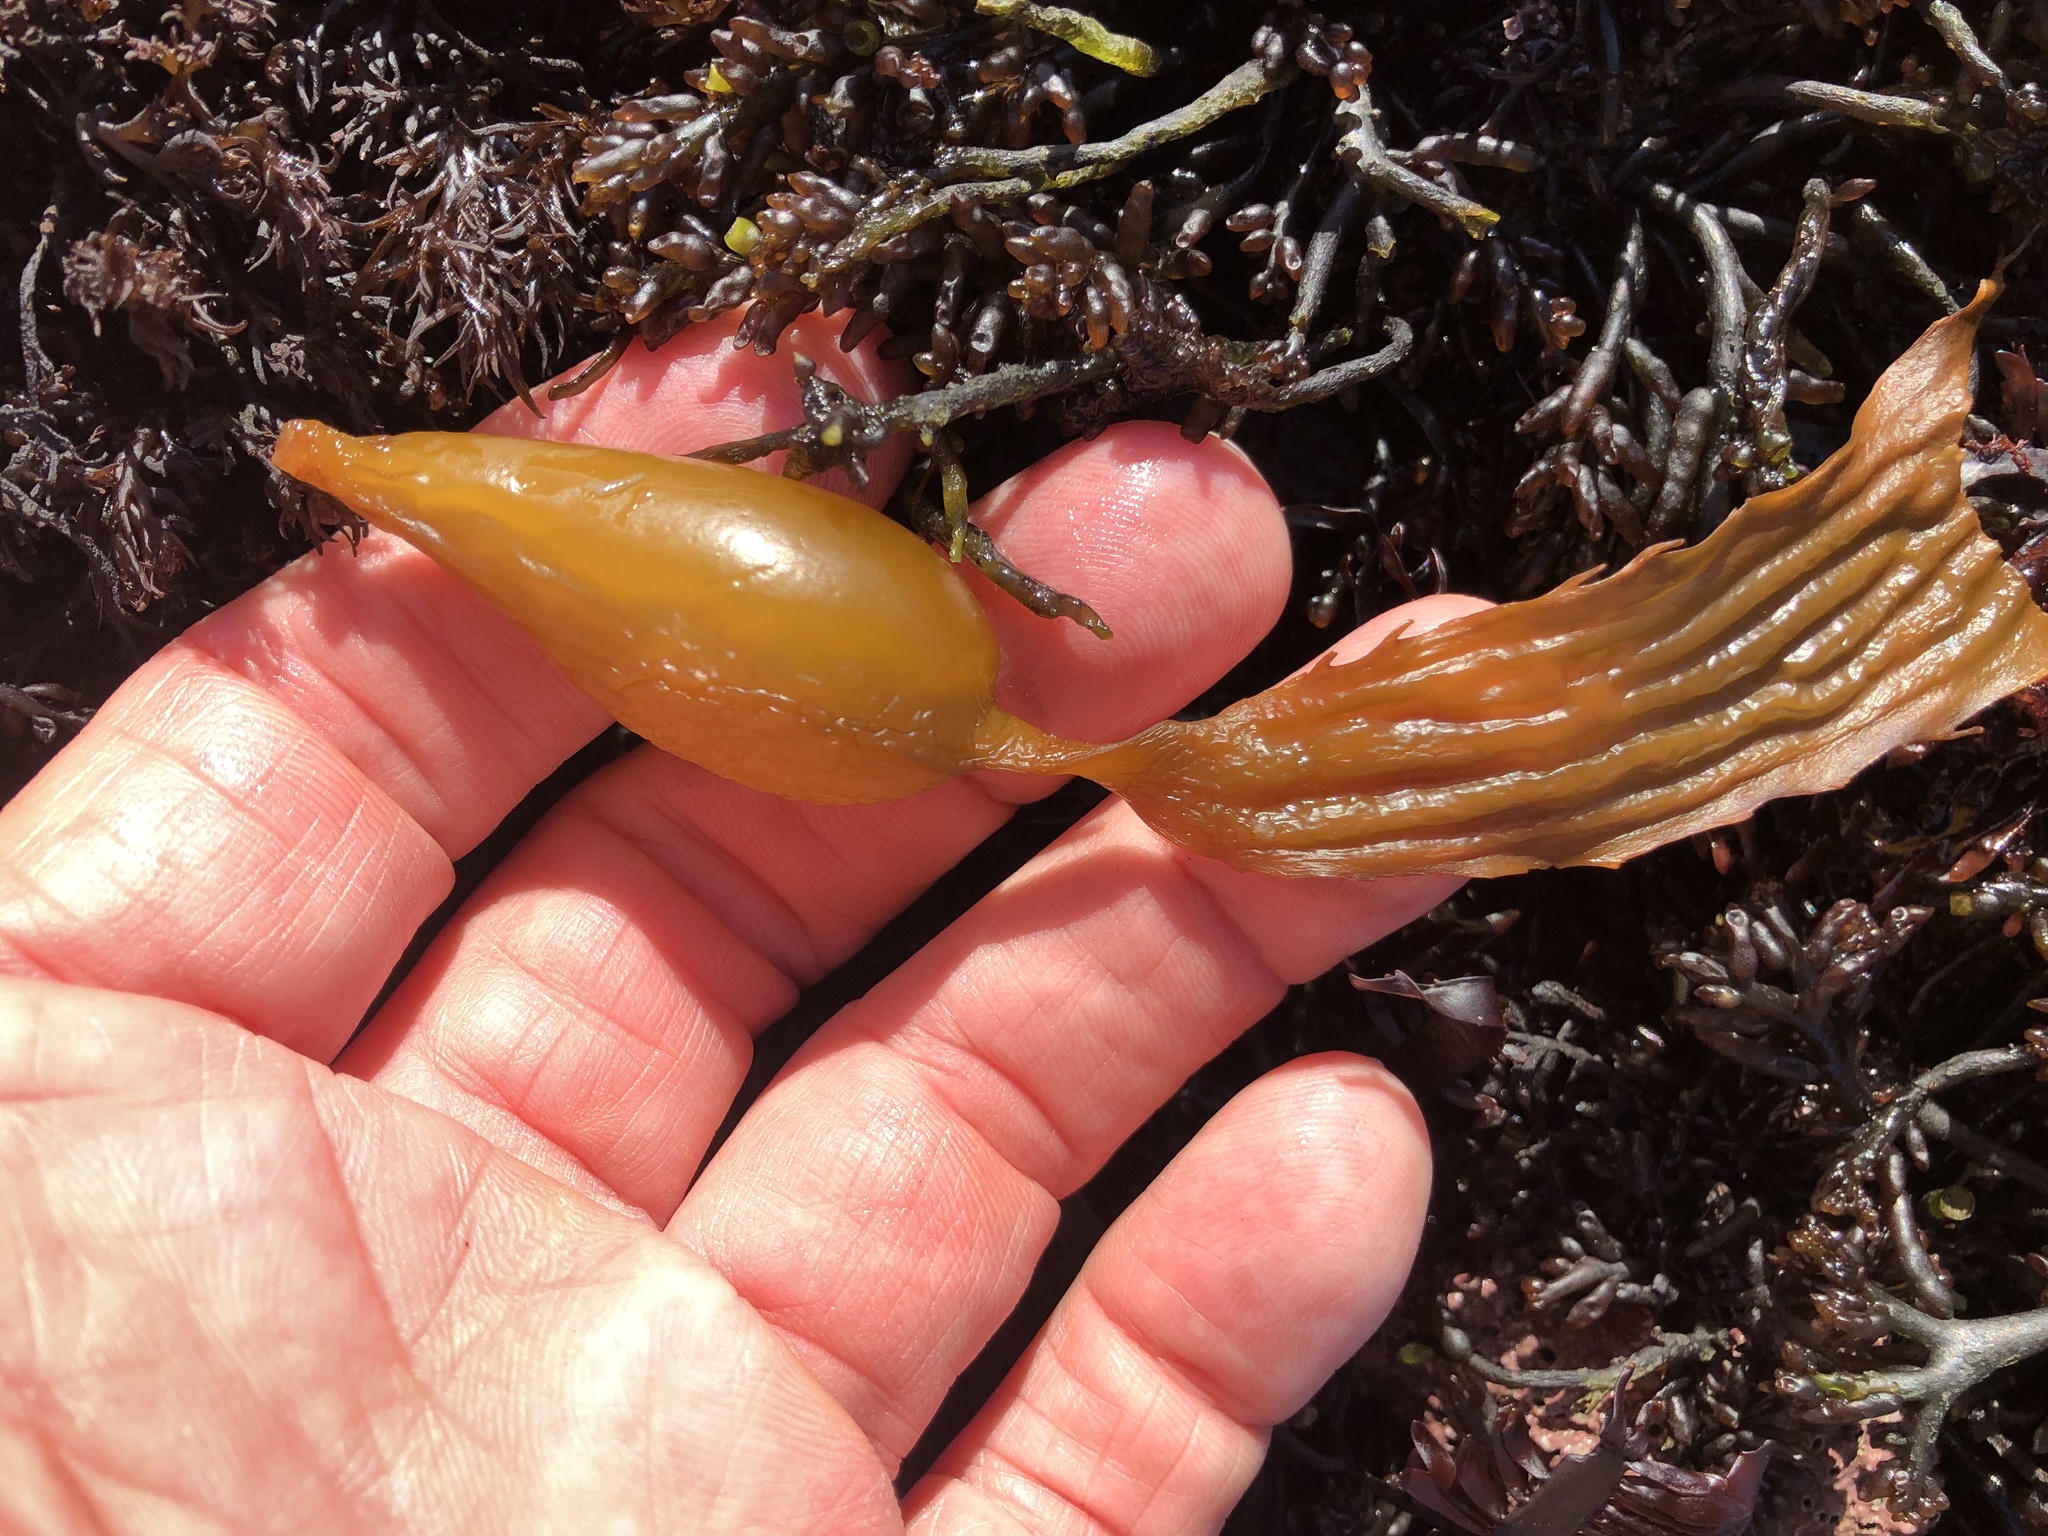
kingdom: Chromista
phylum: Ochrophyta
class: Phaeophyceae
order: Laminariales
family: Laminariaceae
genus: Macrocystis
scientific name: Macrocystis pyrifera
